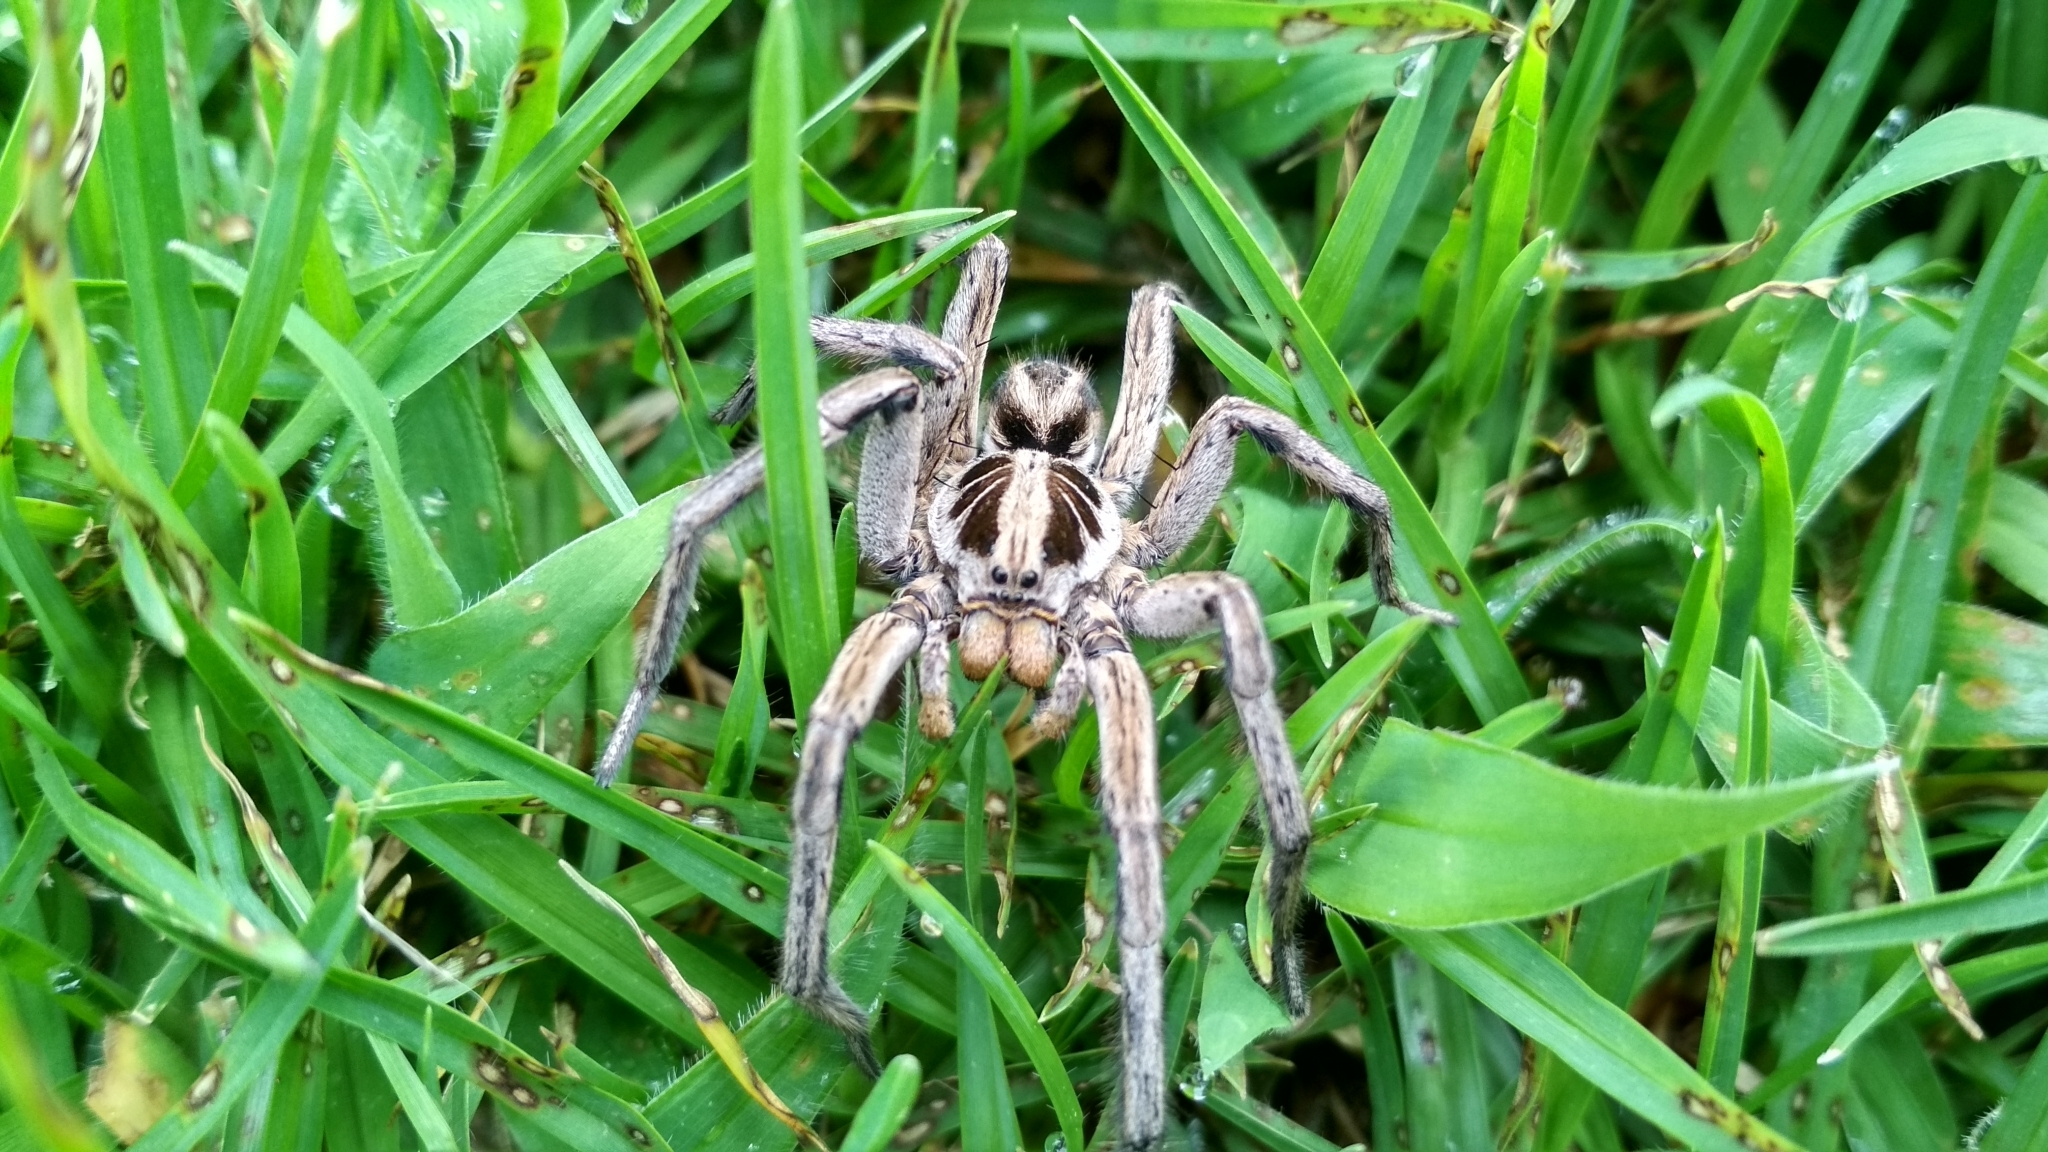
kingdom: Animalia
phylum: Arthropoda
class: Arachnida
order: Araneae
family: Lycosidae
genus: Lycosa
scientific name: Lycosa erythrognatha
